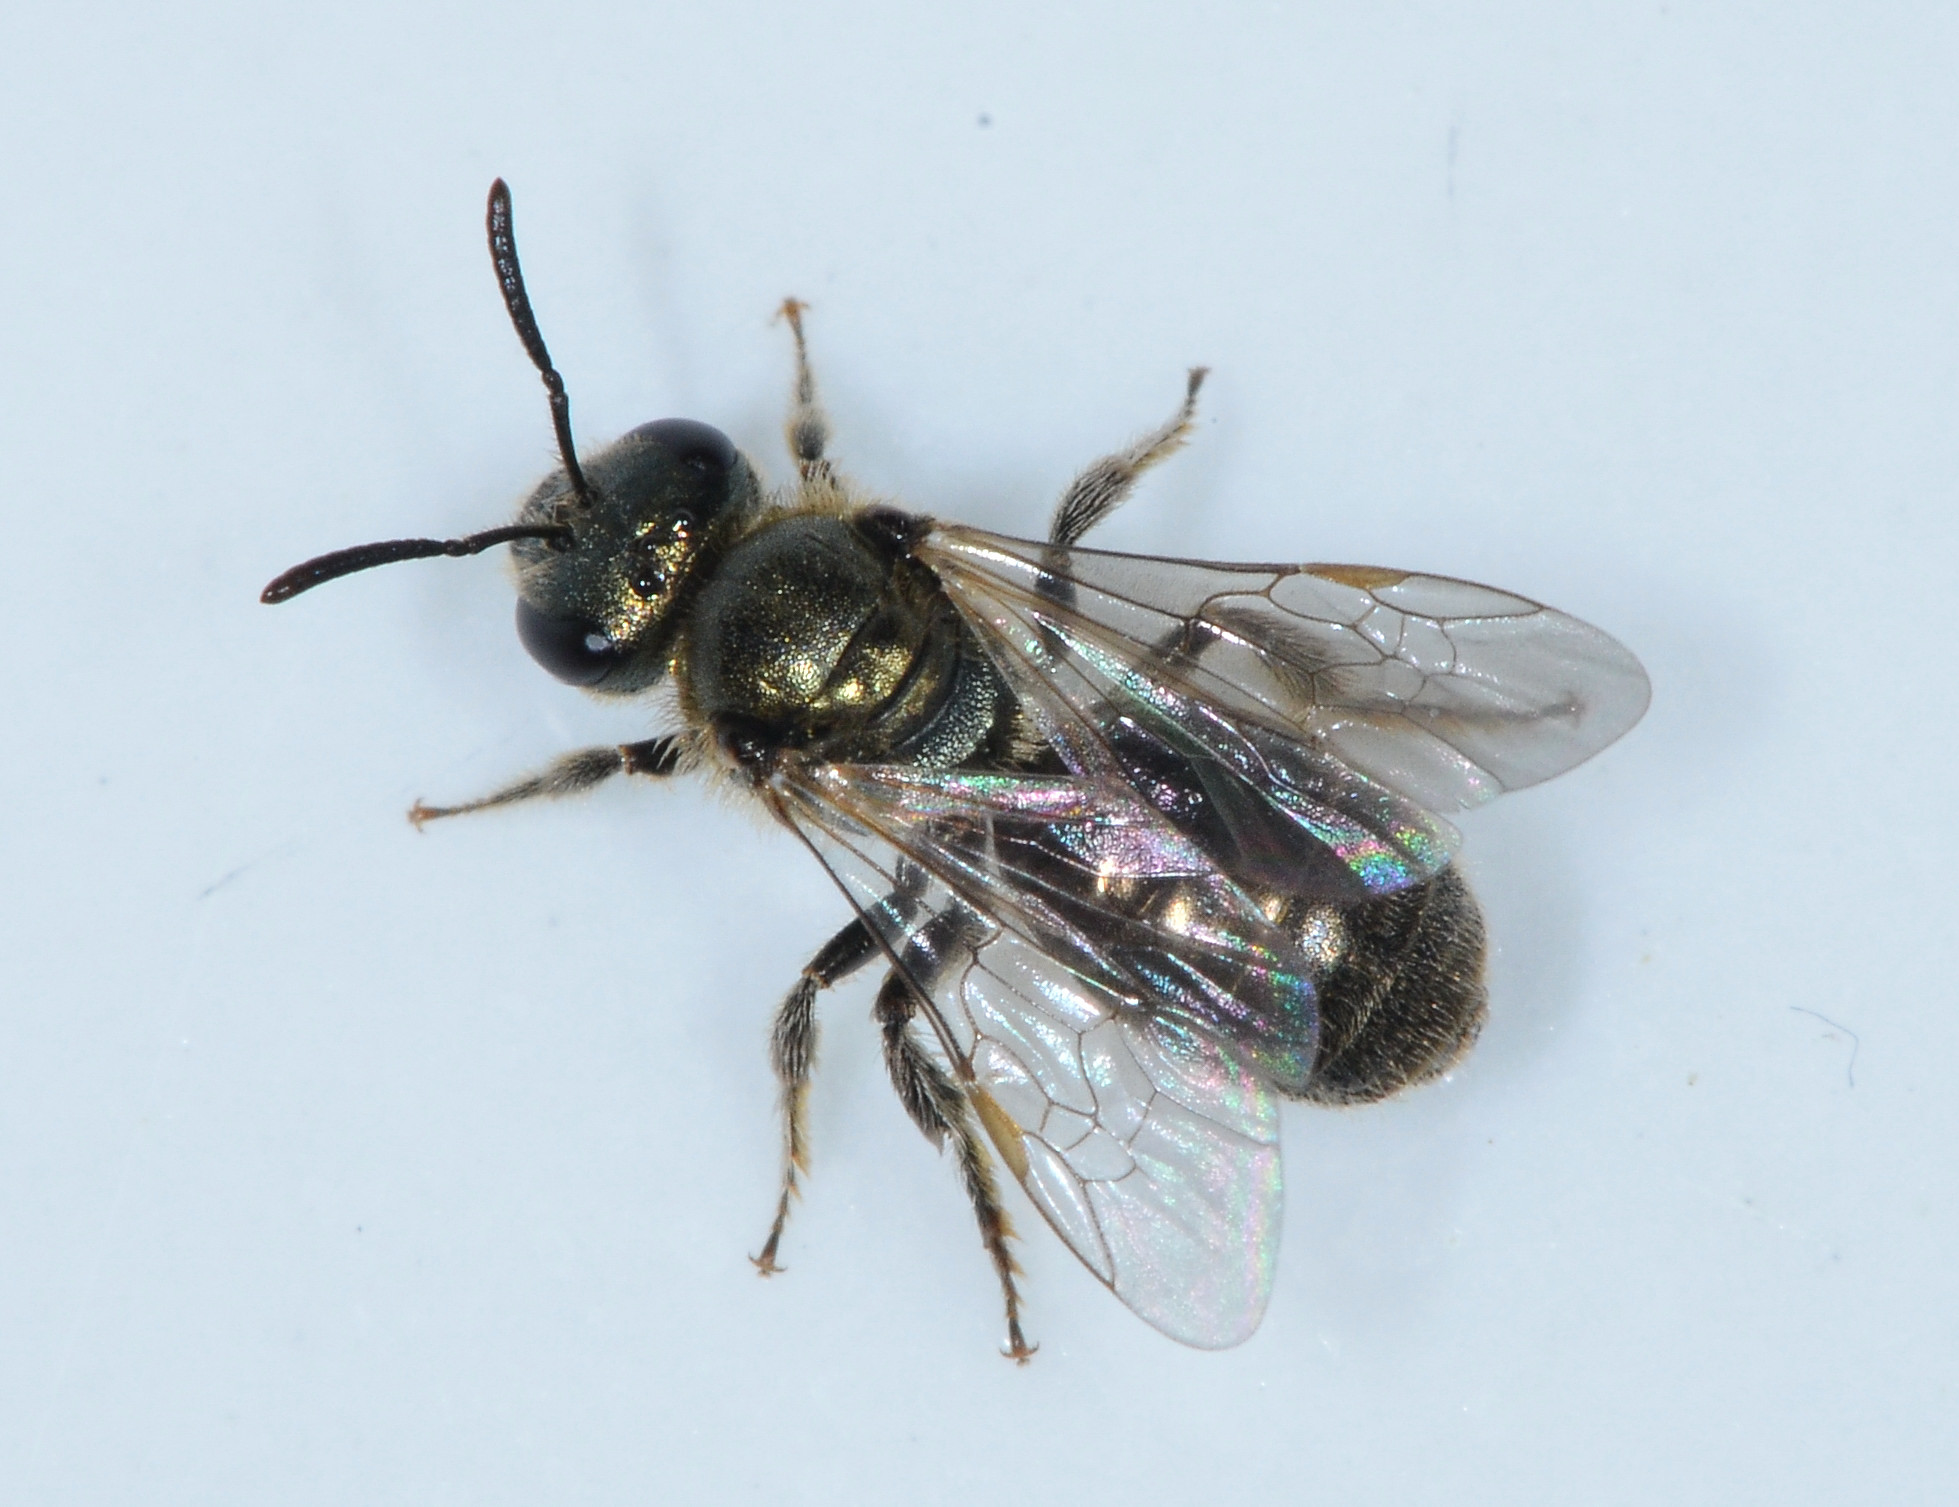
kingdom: Animalia
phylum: Arthropoda
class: Insecta
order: Hymenoptera
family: Halictidae
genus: Dialictus
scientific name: Dialictus
